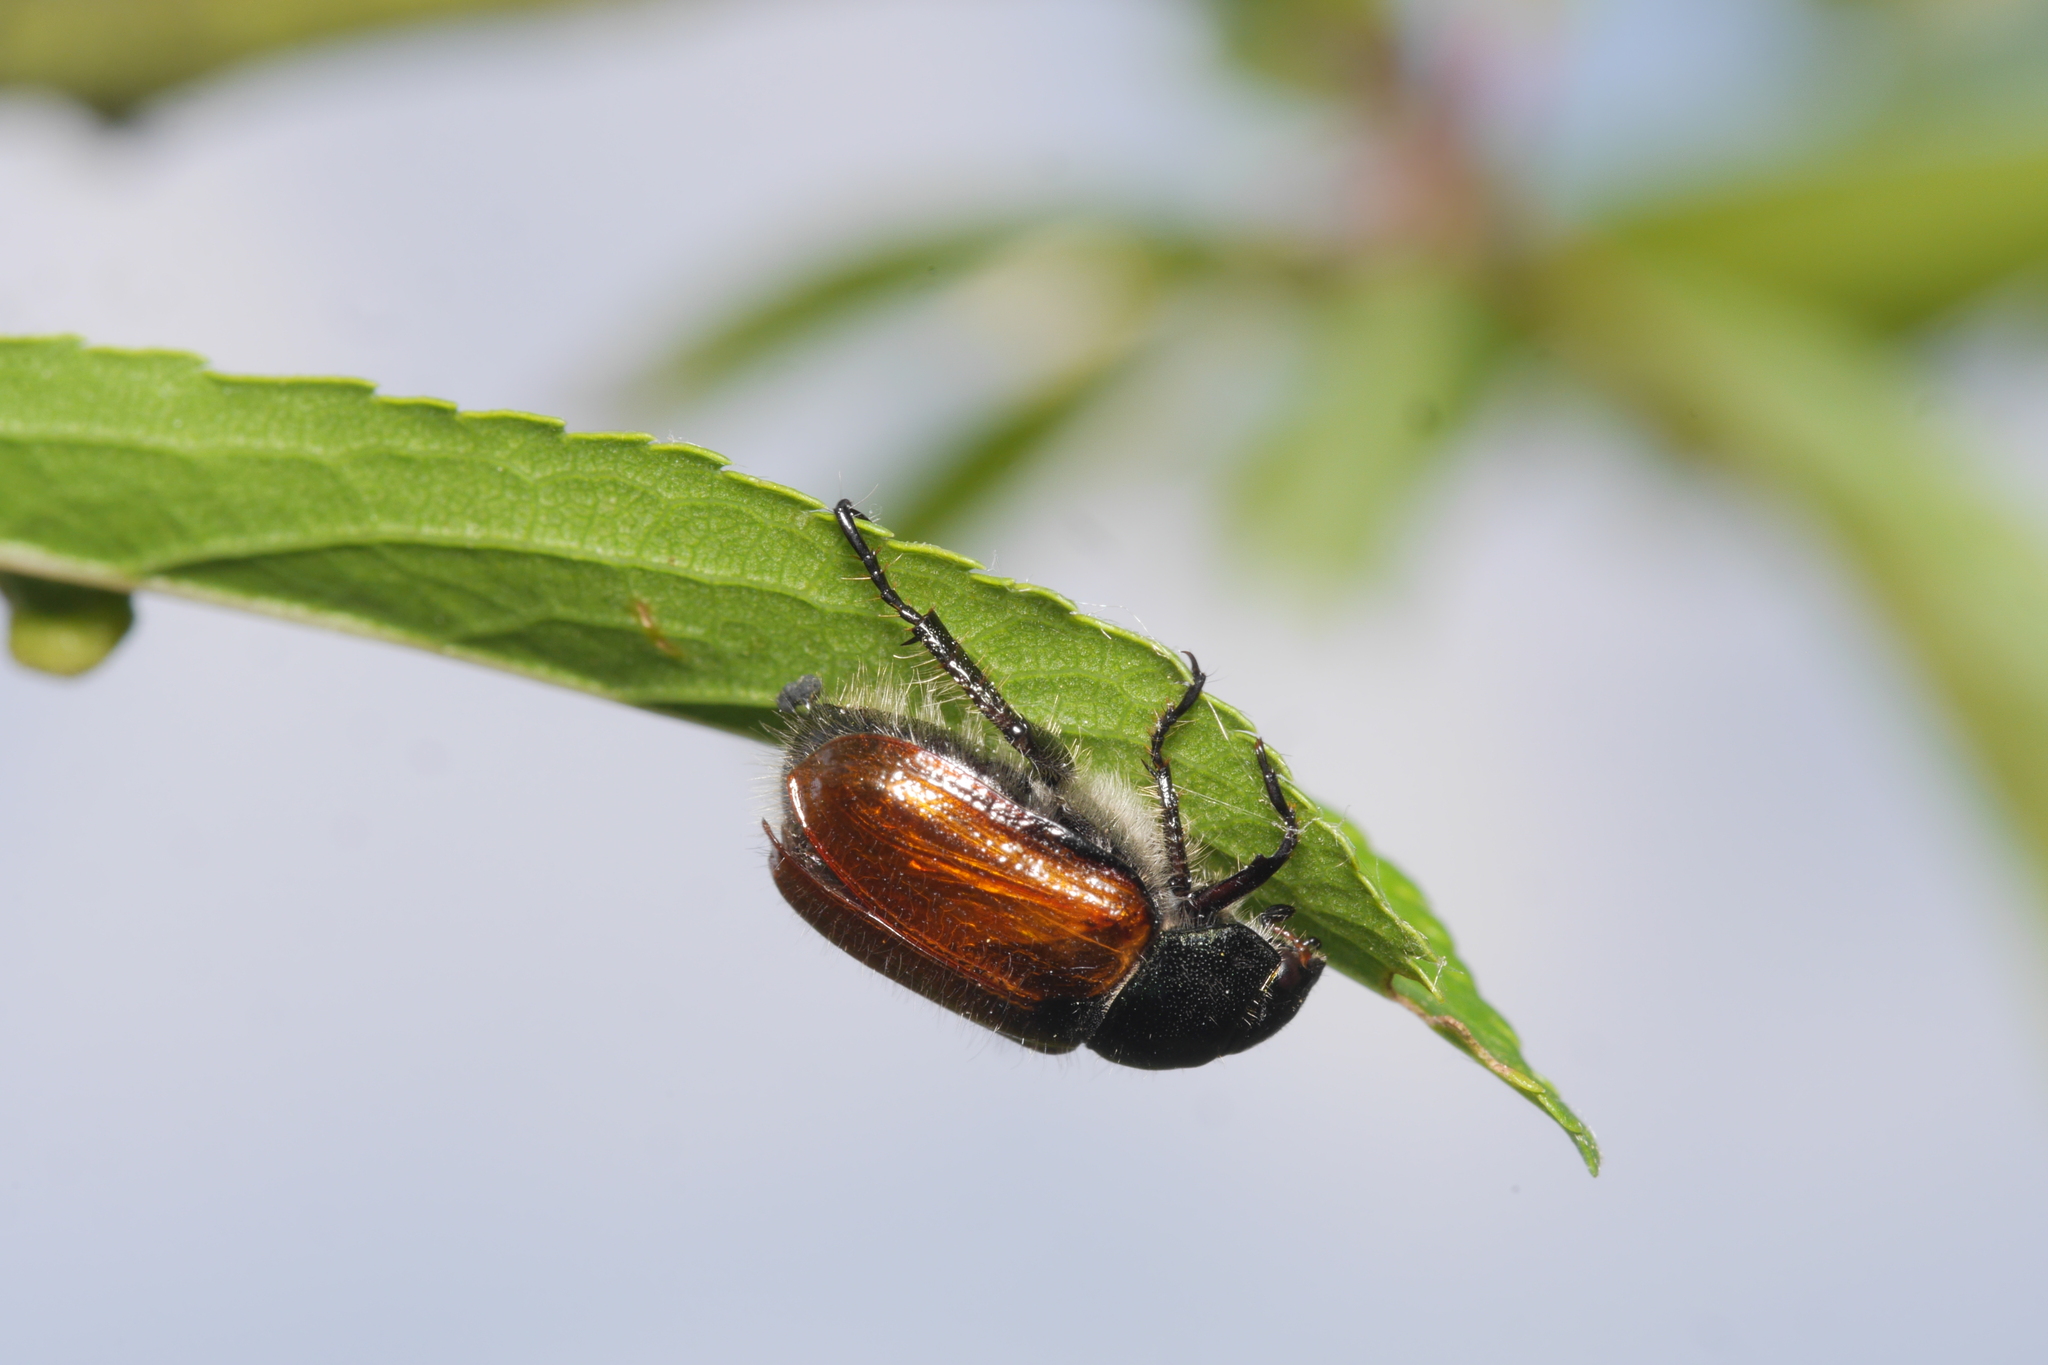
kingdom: Animalia
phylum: Arthropoda
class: Insecta
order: Coleoptera
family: Scarabaeidae
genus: Phyllopertha
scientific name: Phyllopertha horticola
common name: Garden chafer
